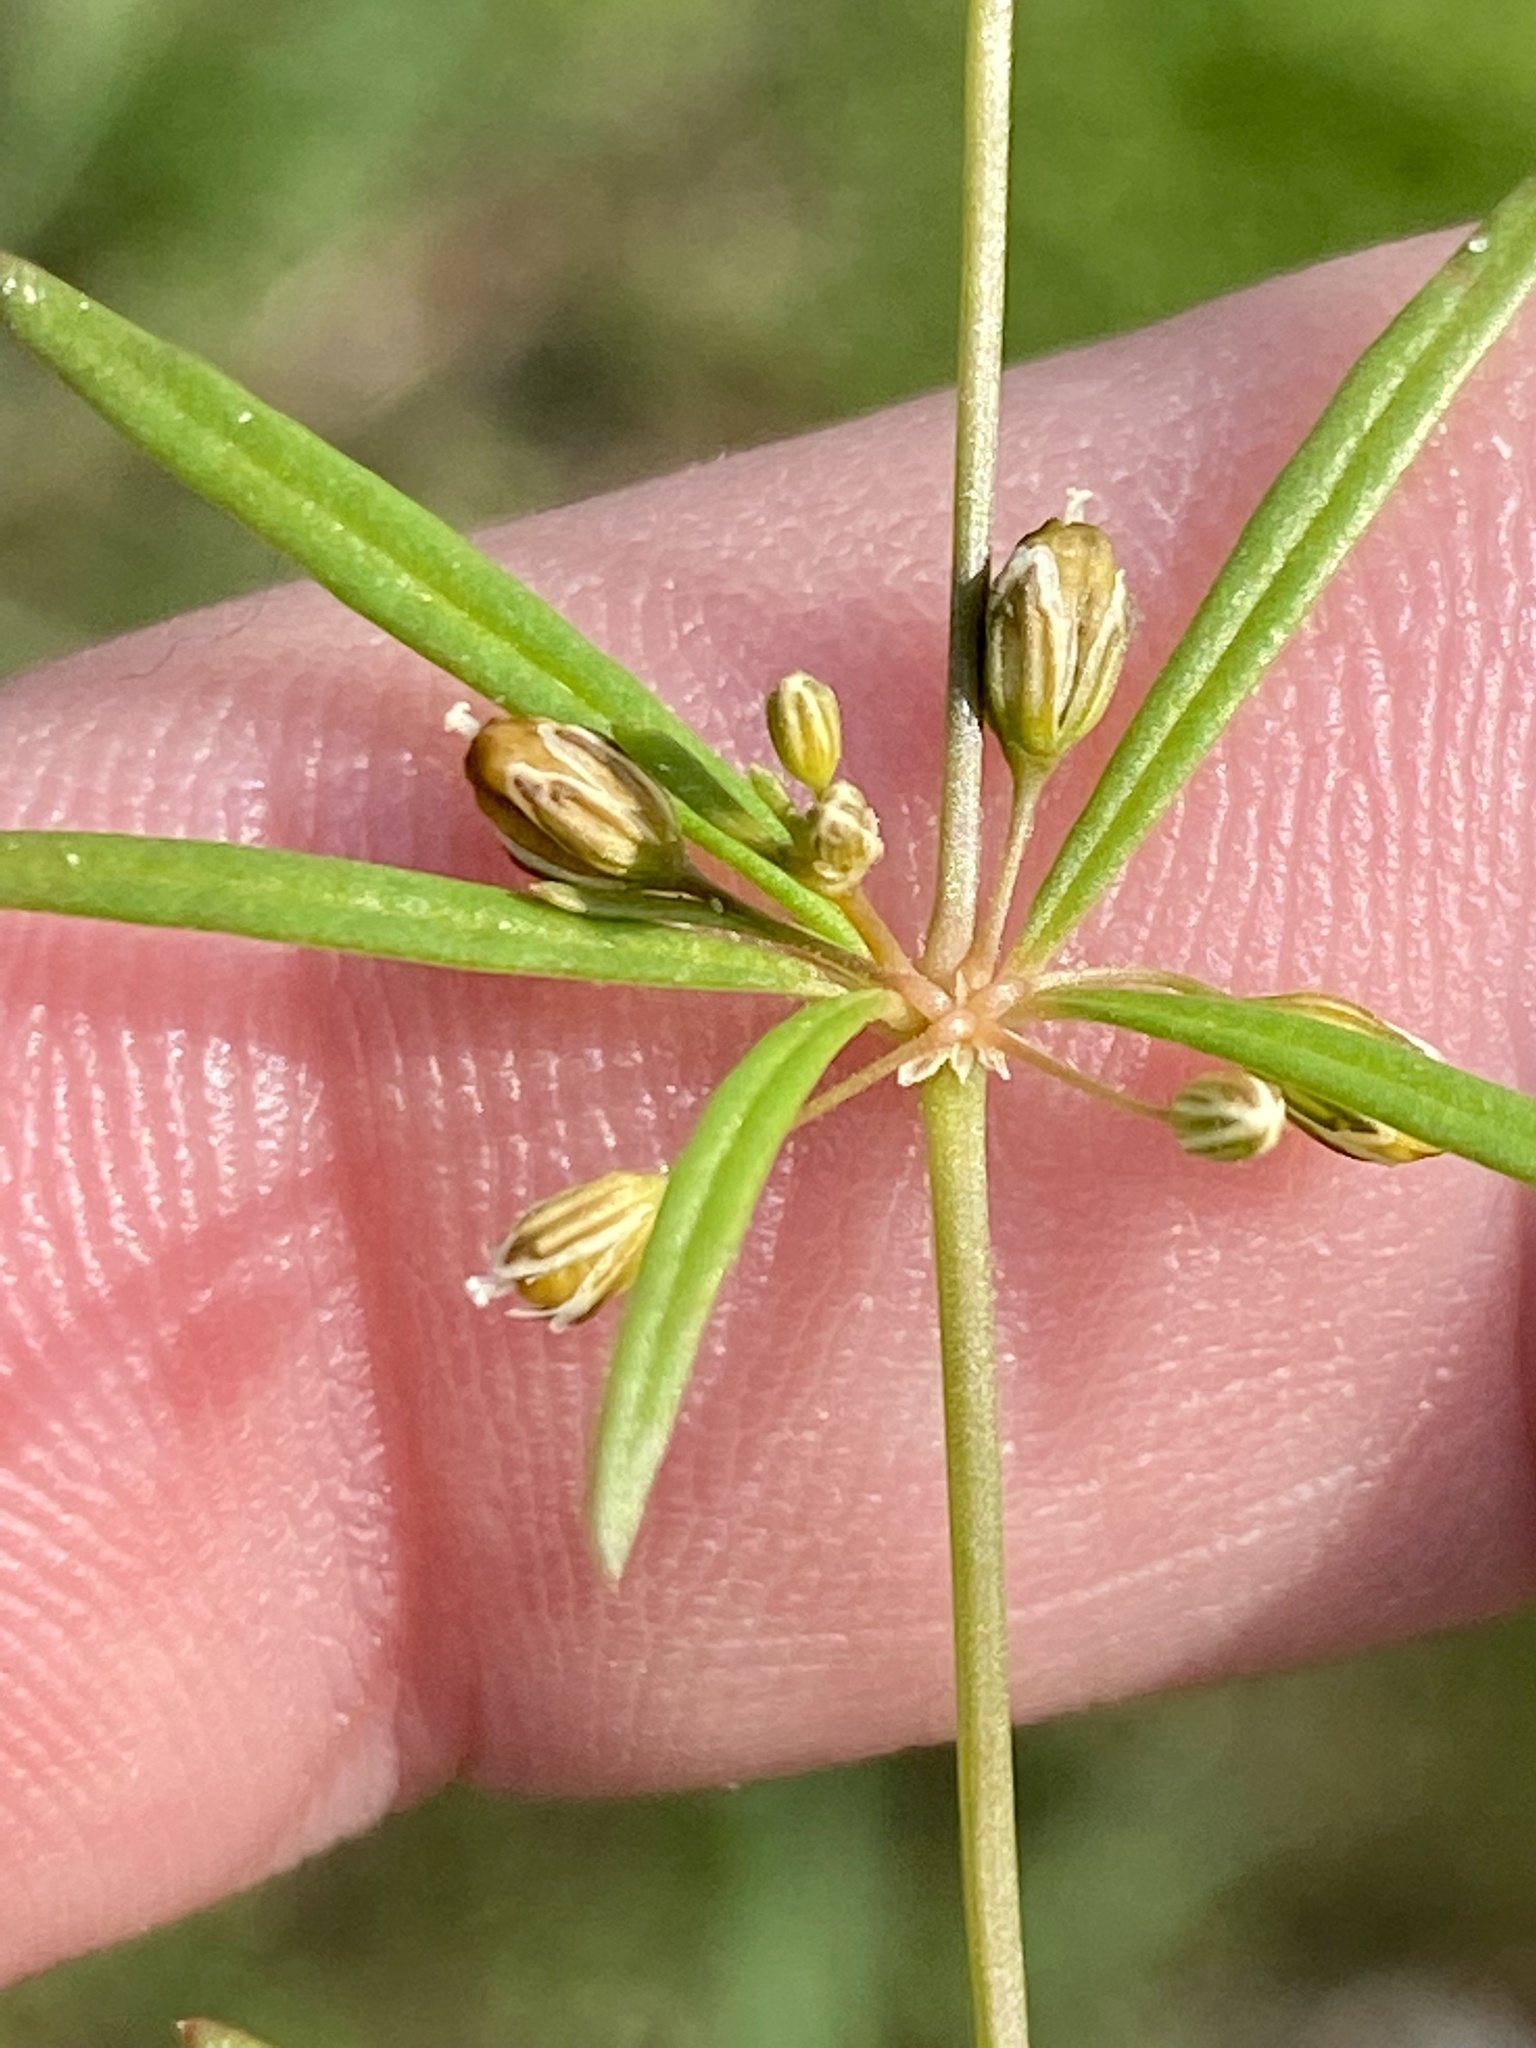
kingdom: Plantae
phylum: Tracheophyta
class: Magnoliopsida
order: Caryophyllales
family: Molluginaceae
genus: Mollugo
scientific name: Mollugo verticillata
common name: Green carpetweed
